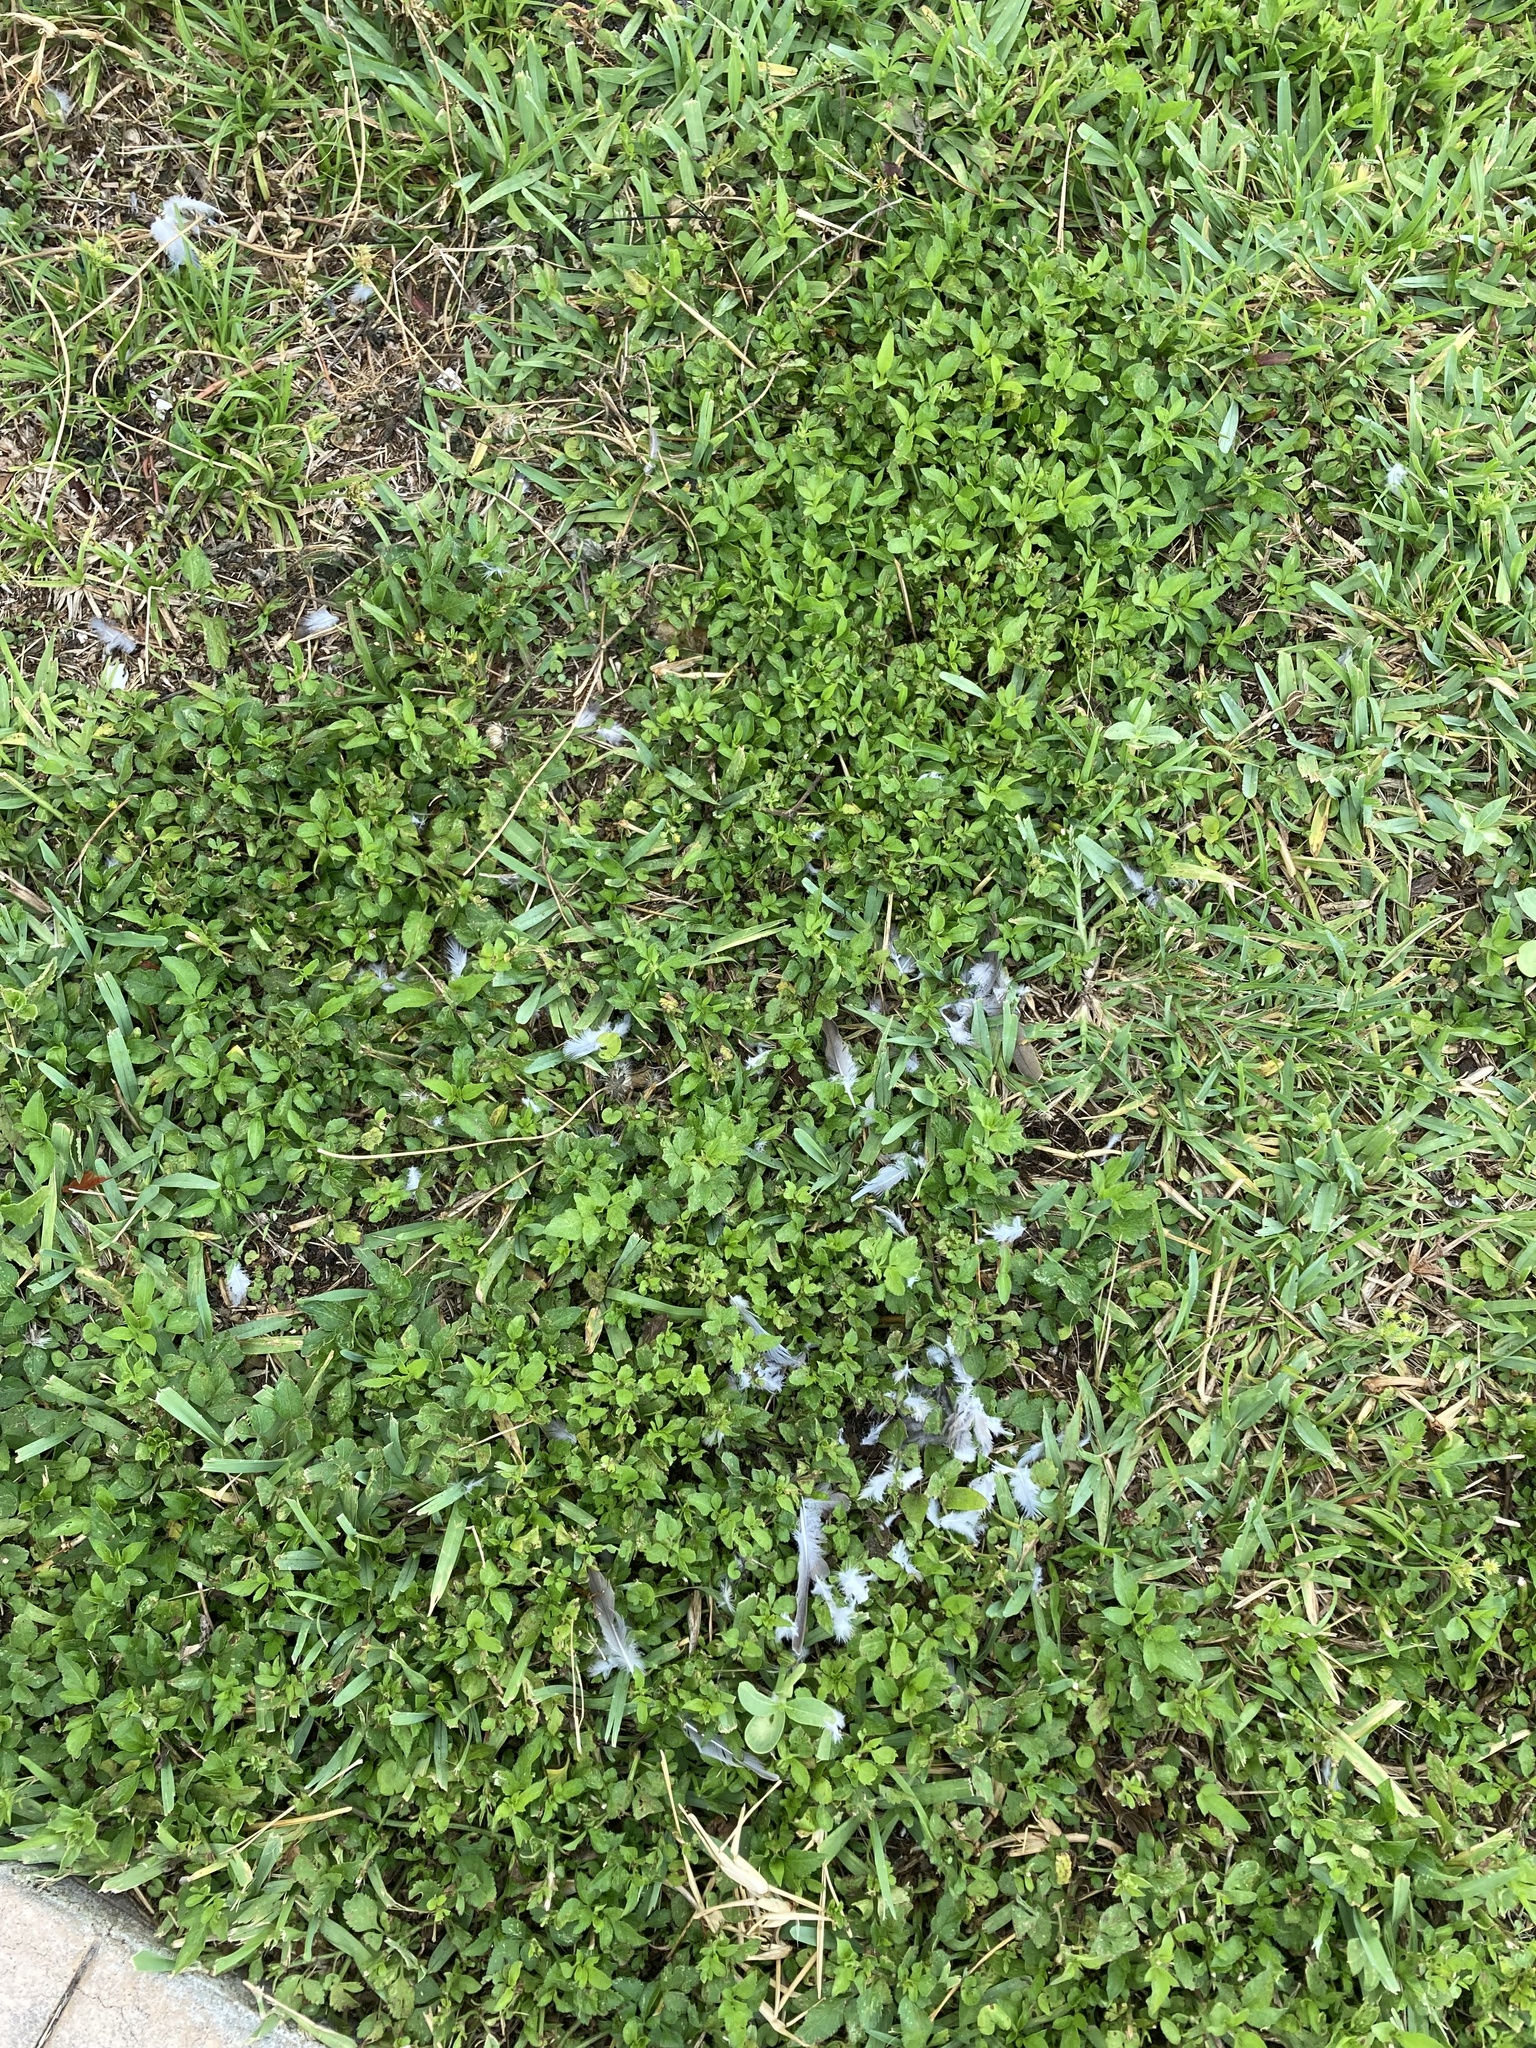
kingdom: Animalia
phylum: Chordata
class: Aves
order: Columbiformes
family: Columbidae
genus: Zenaida
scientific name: Zenaida macroura
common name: Mourning dove
